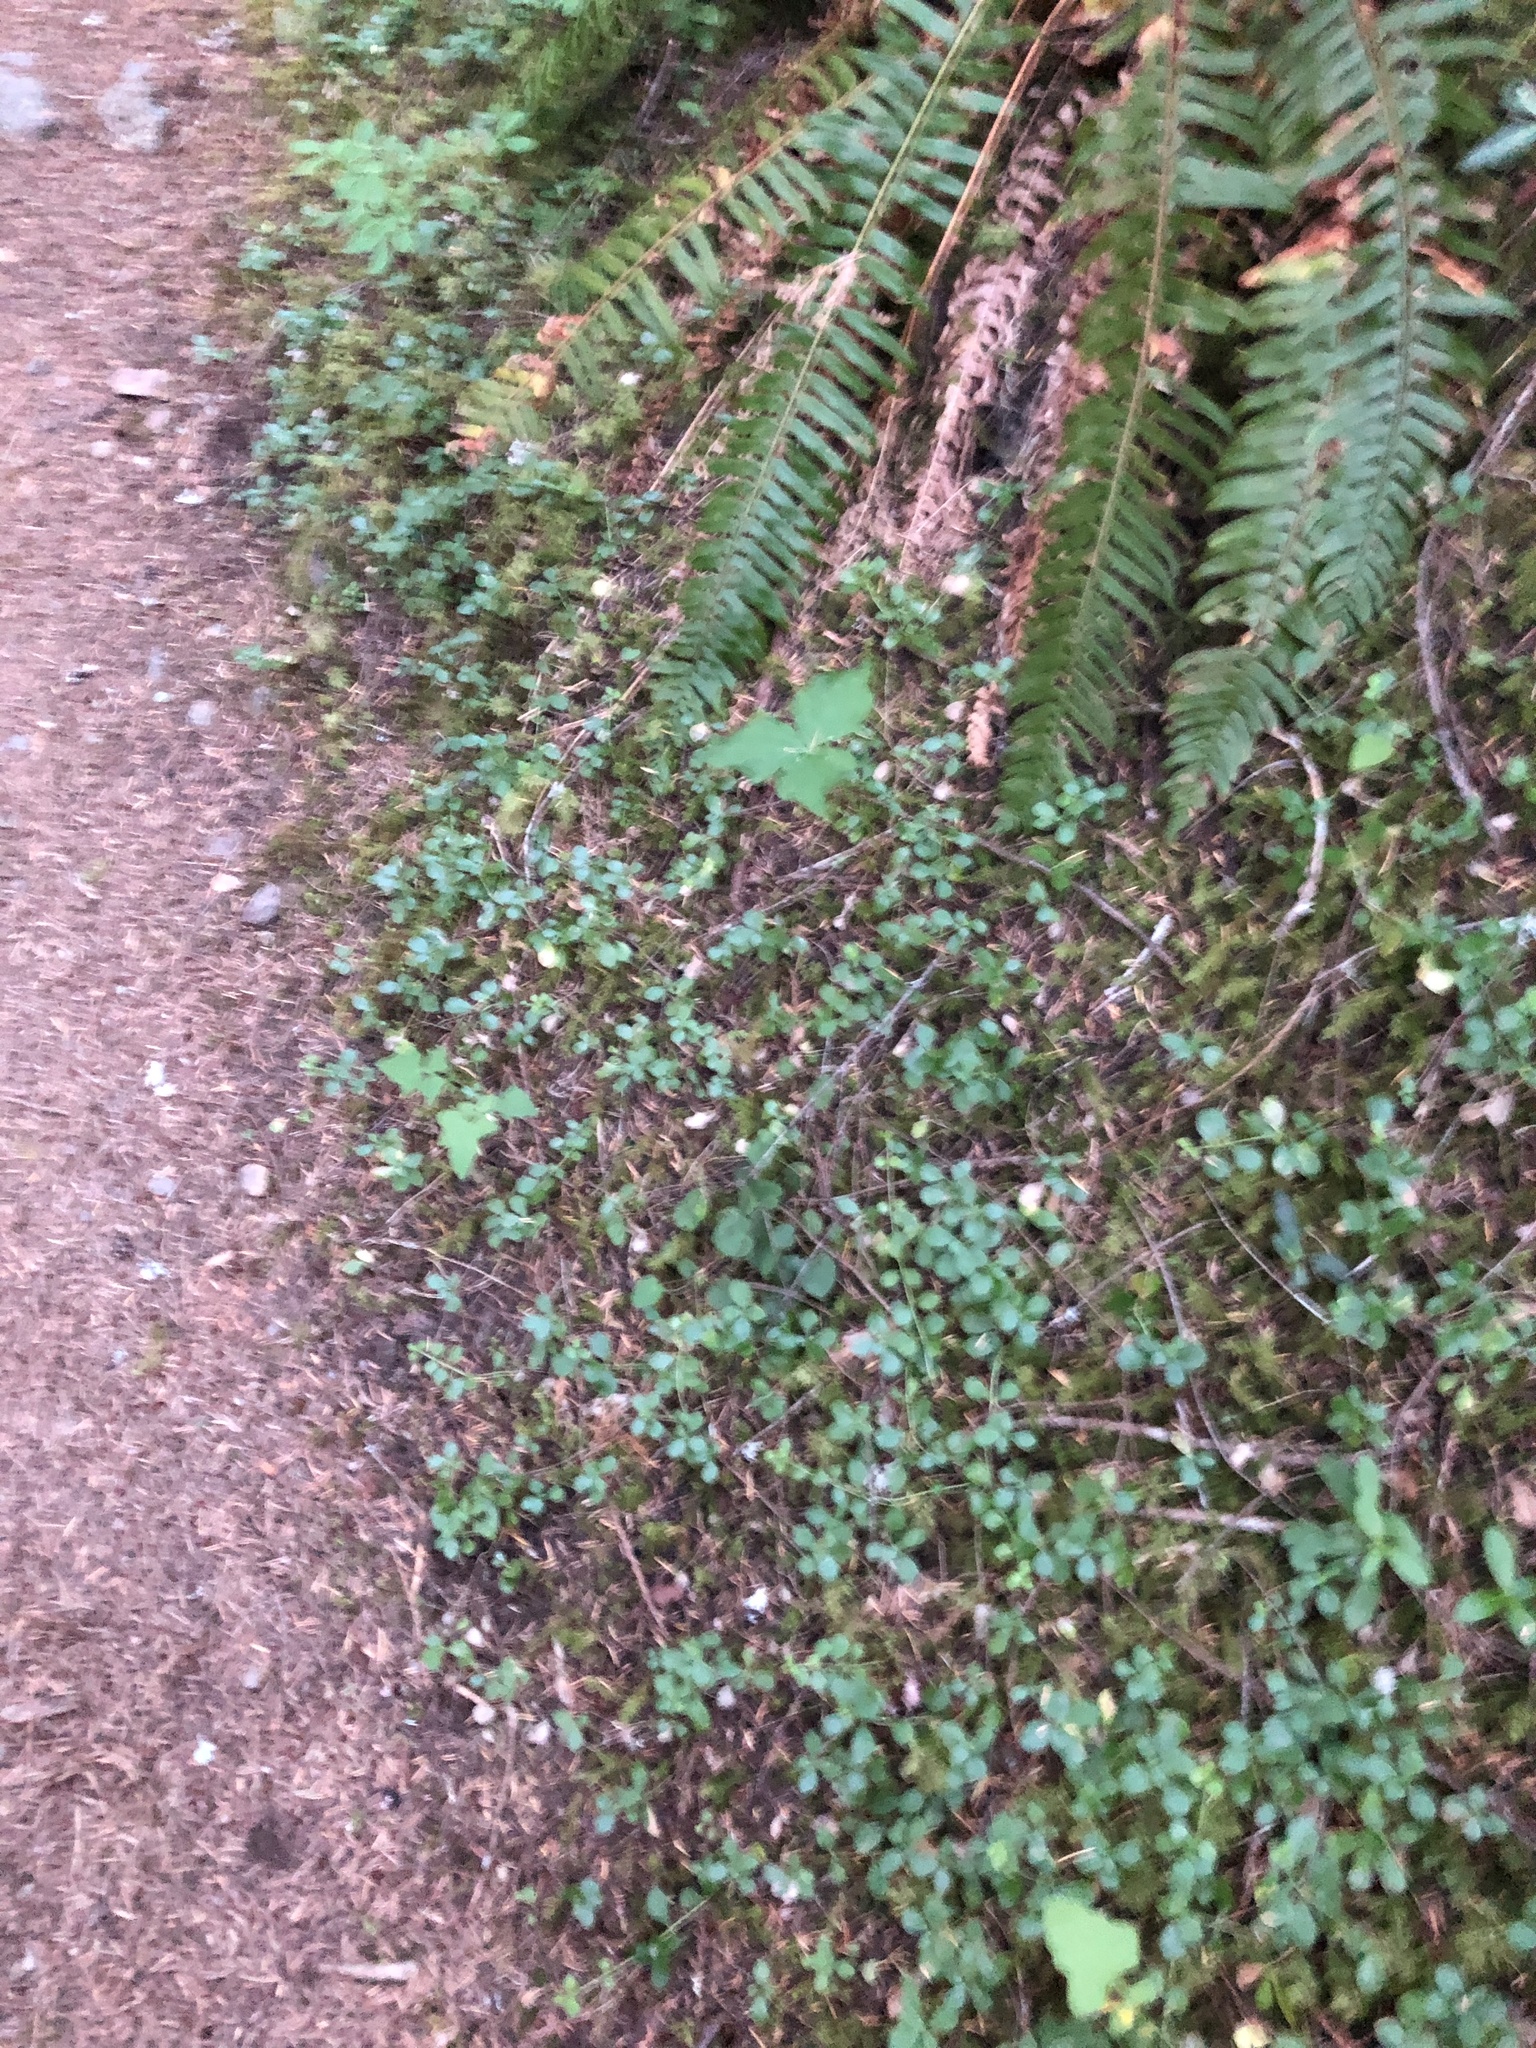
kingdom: Plantae
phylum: Tracheophyta
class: Magnoliopsida
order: Dipsacales
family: Caprifoliaceae
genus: Linnaea
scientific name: Linnaea borealis
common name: Twinflower
